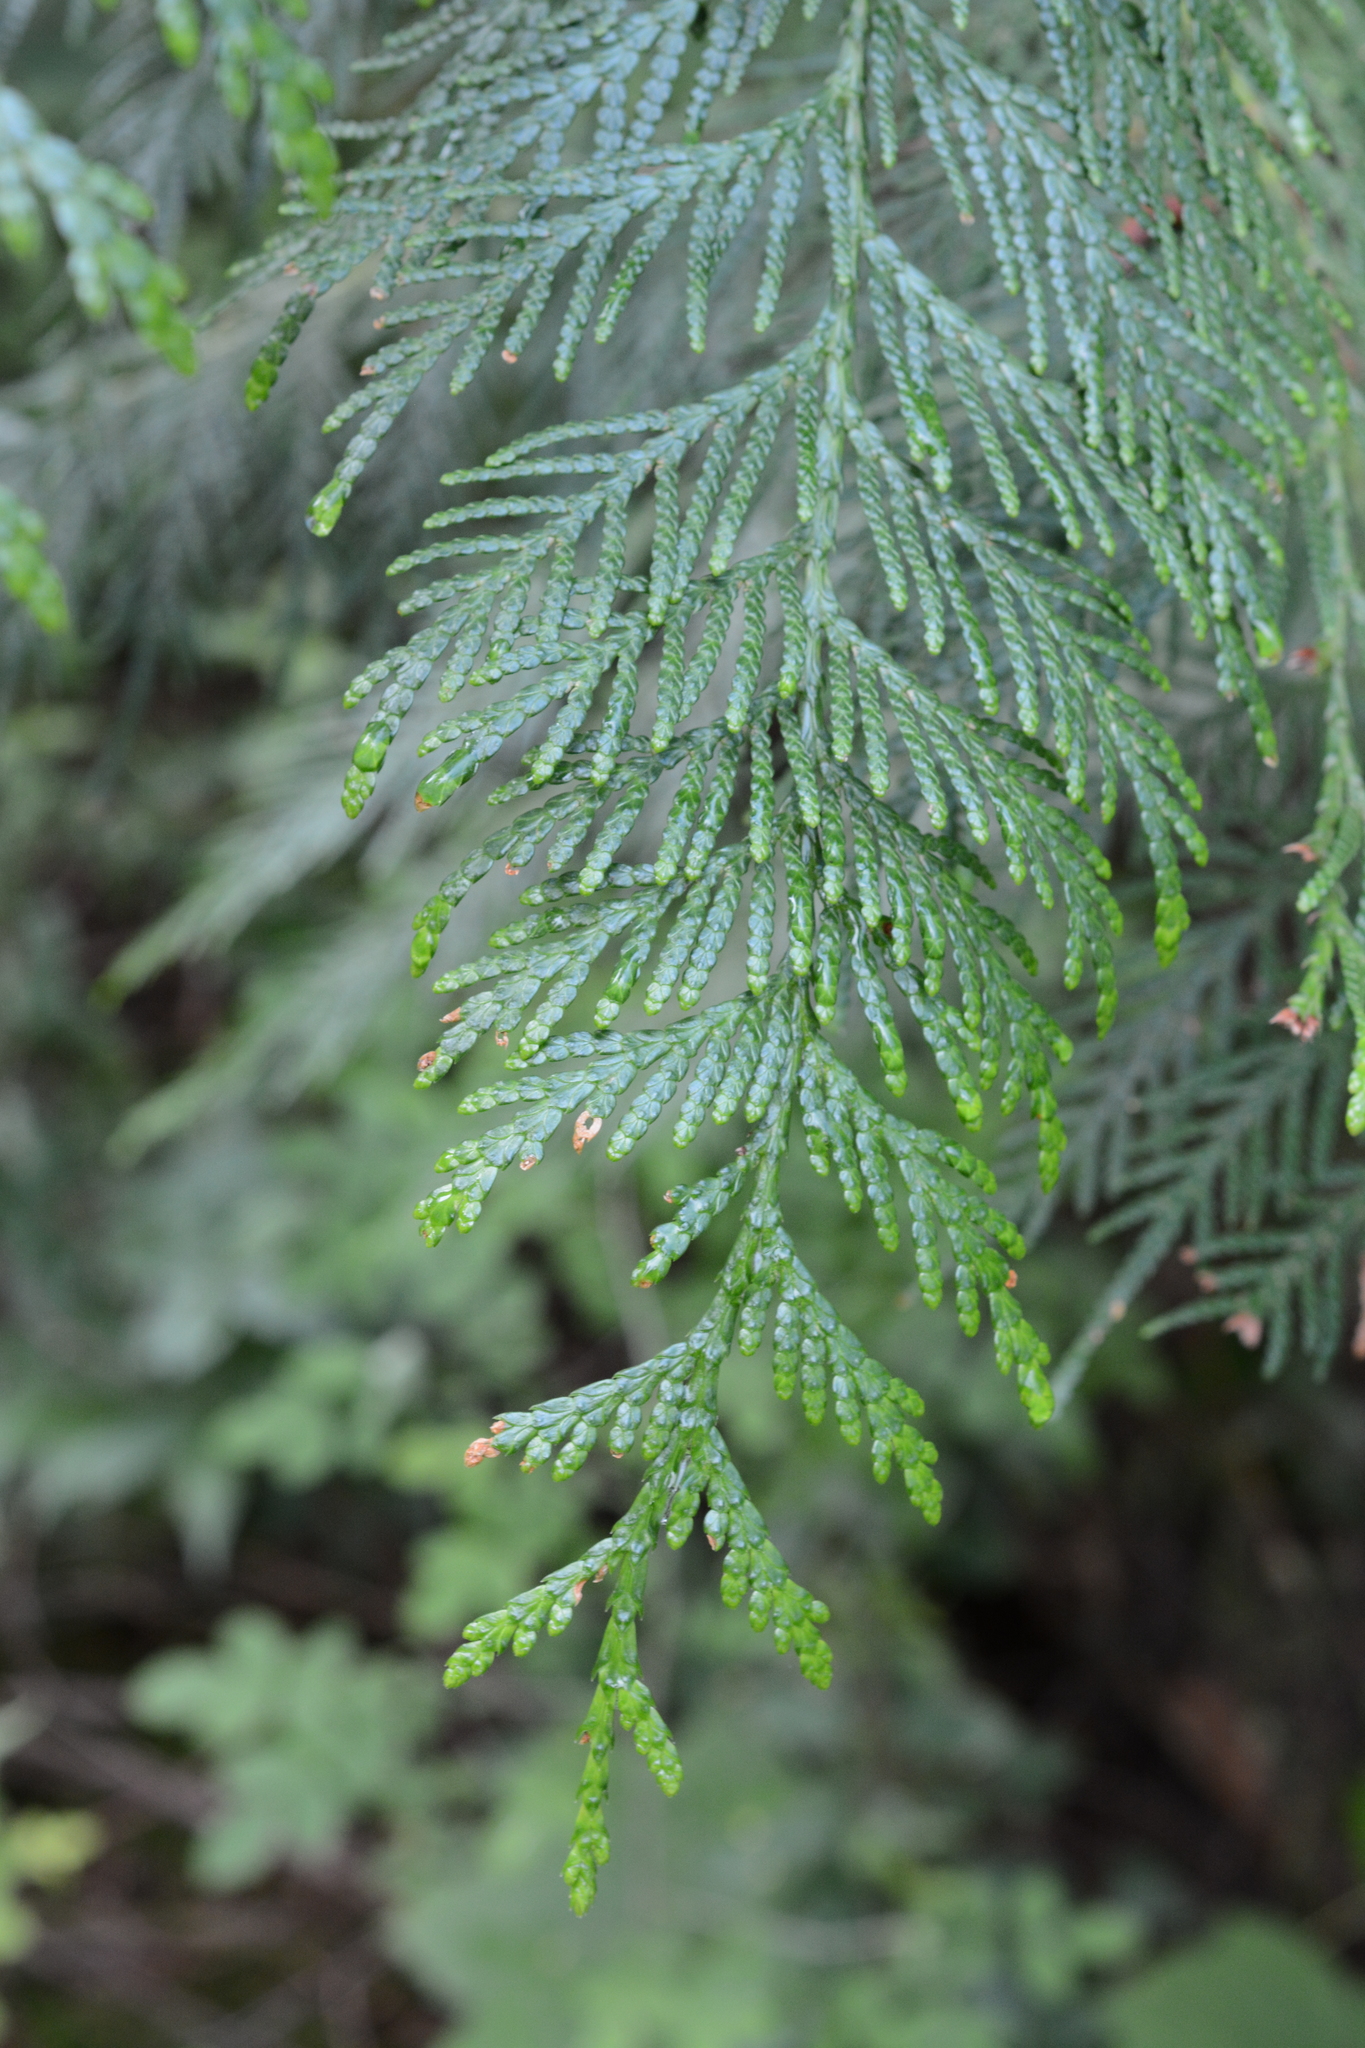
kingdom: Plantae
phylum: Tracheophyta
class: Pinopsida
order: Pinales
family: Cupressaceae
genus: Thuja
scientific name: Thuja plicata
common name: Western red-cedar
